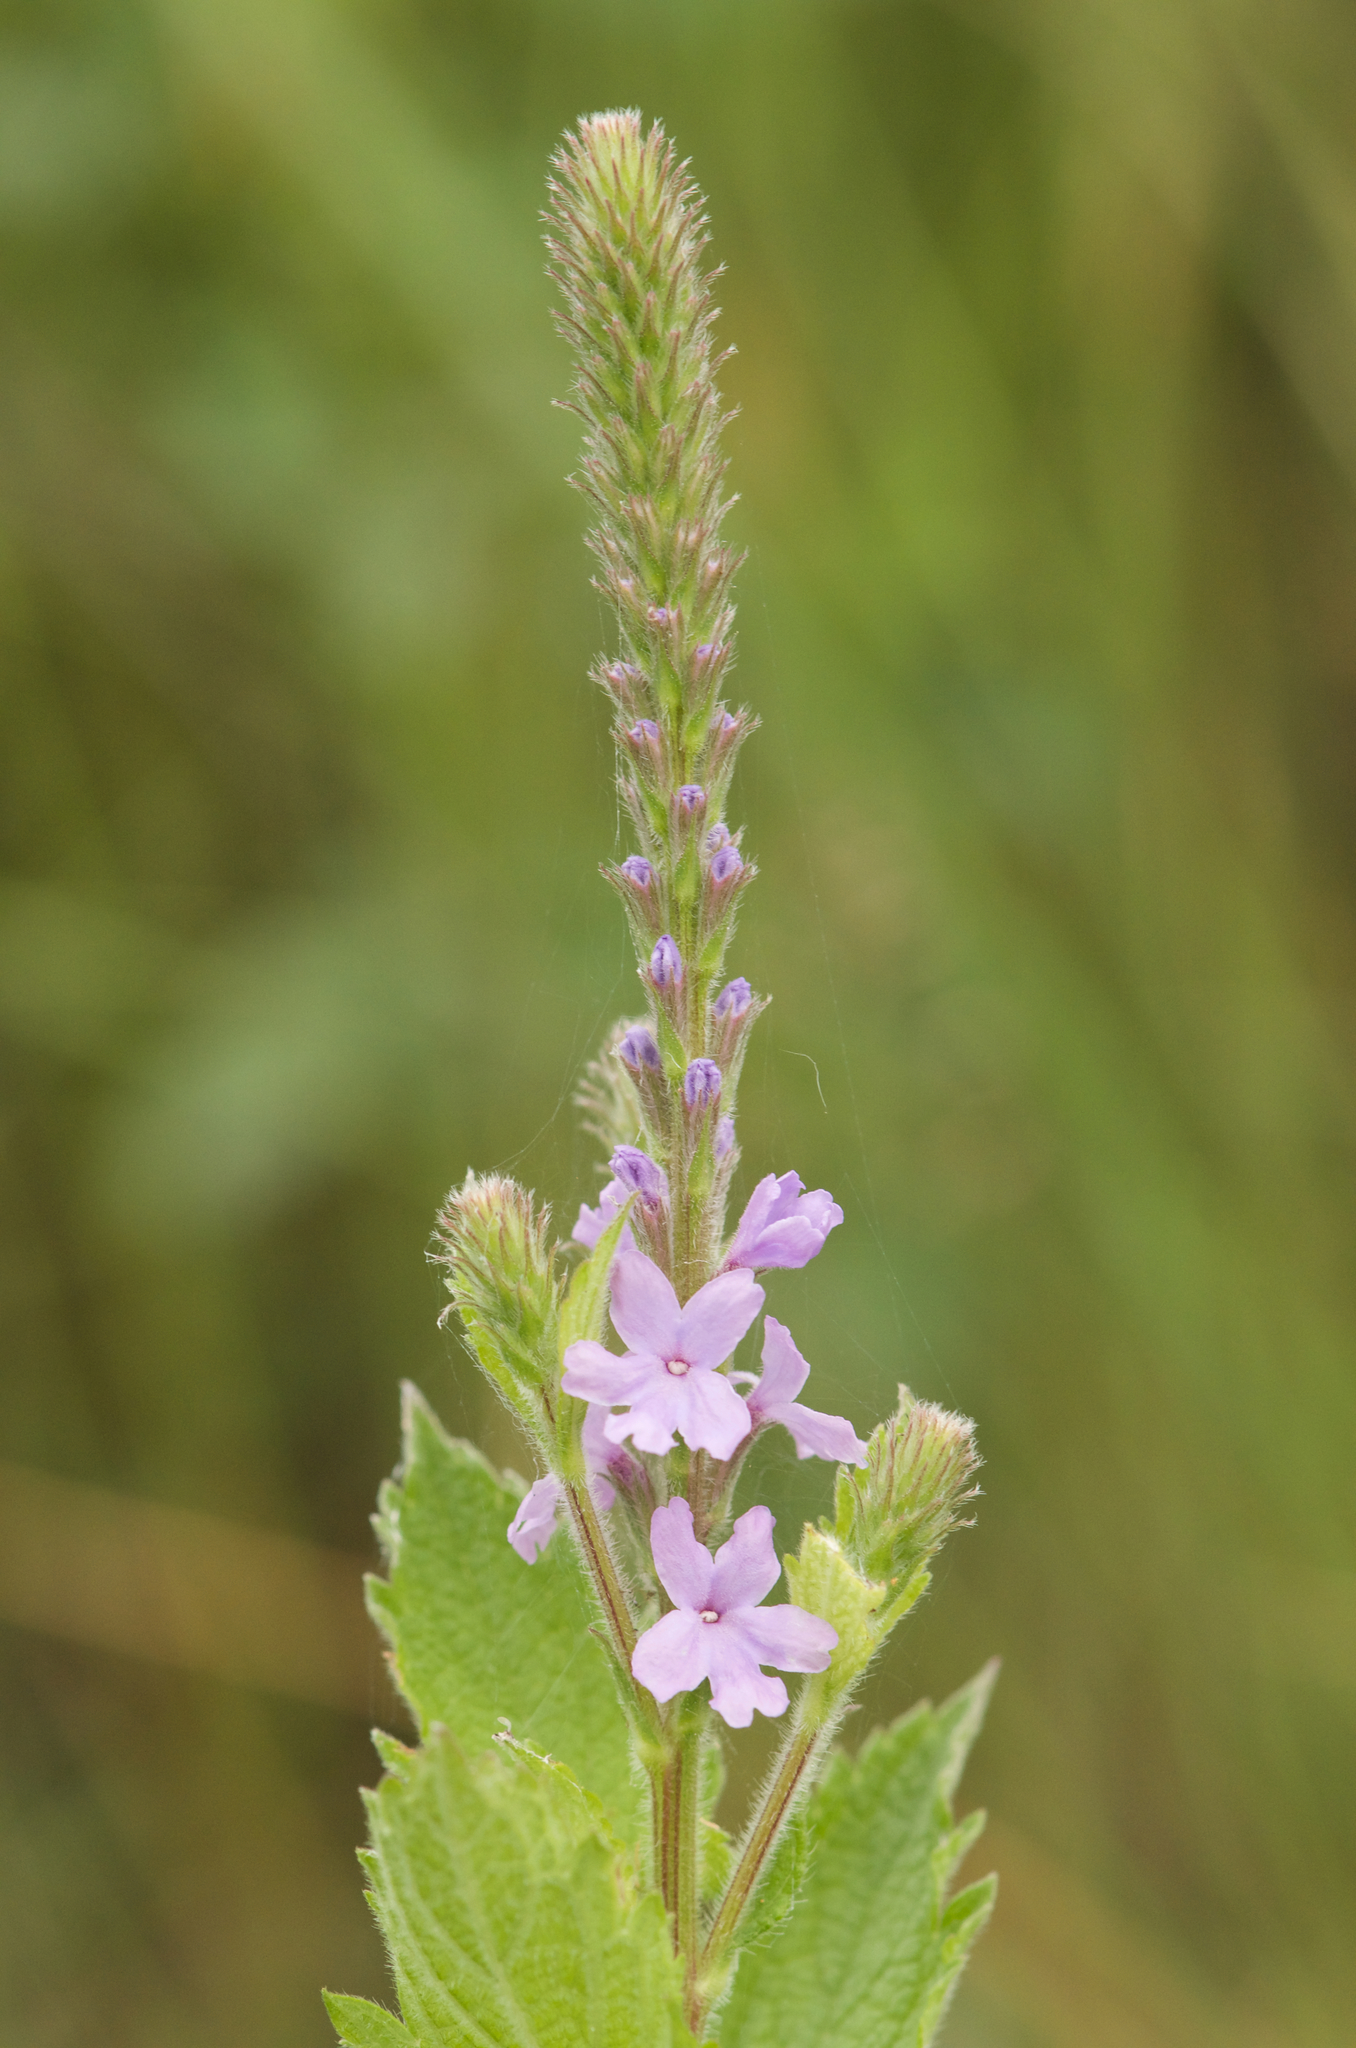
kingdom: Plantae
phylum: Tracheophyta
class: Magnoliopsida
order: Lamiales
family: Verbenaceae
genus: Verbena
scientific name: Verbena stricta
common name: Hoary vervain
